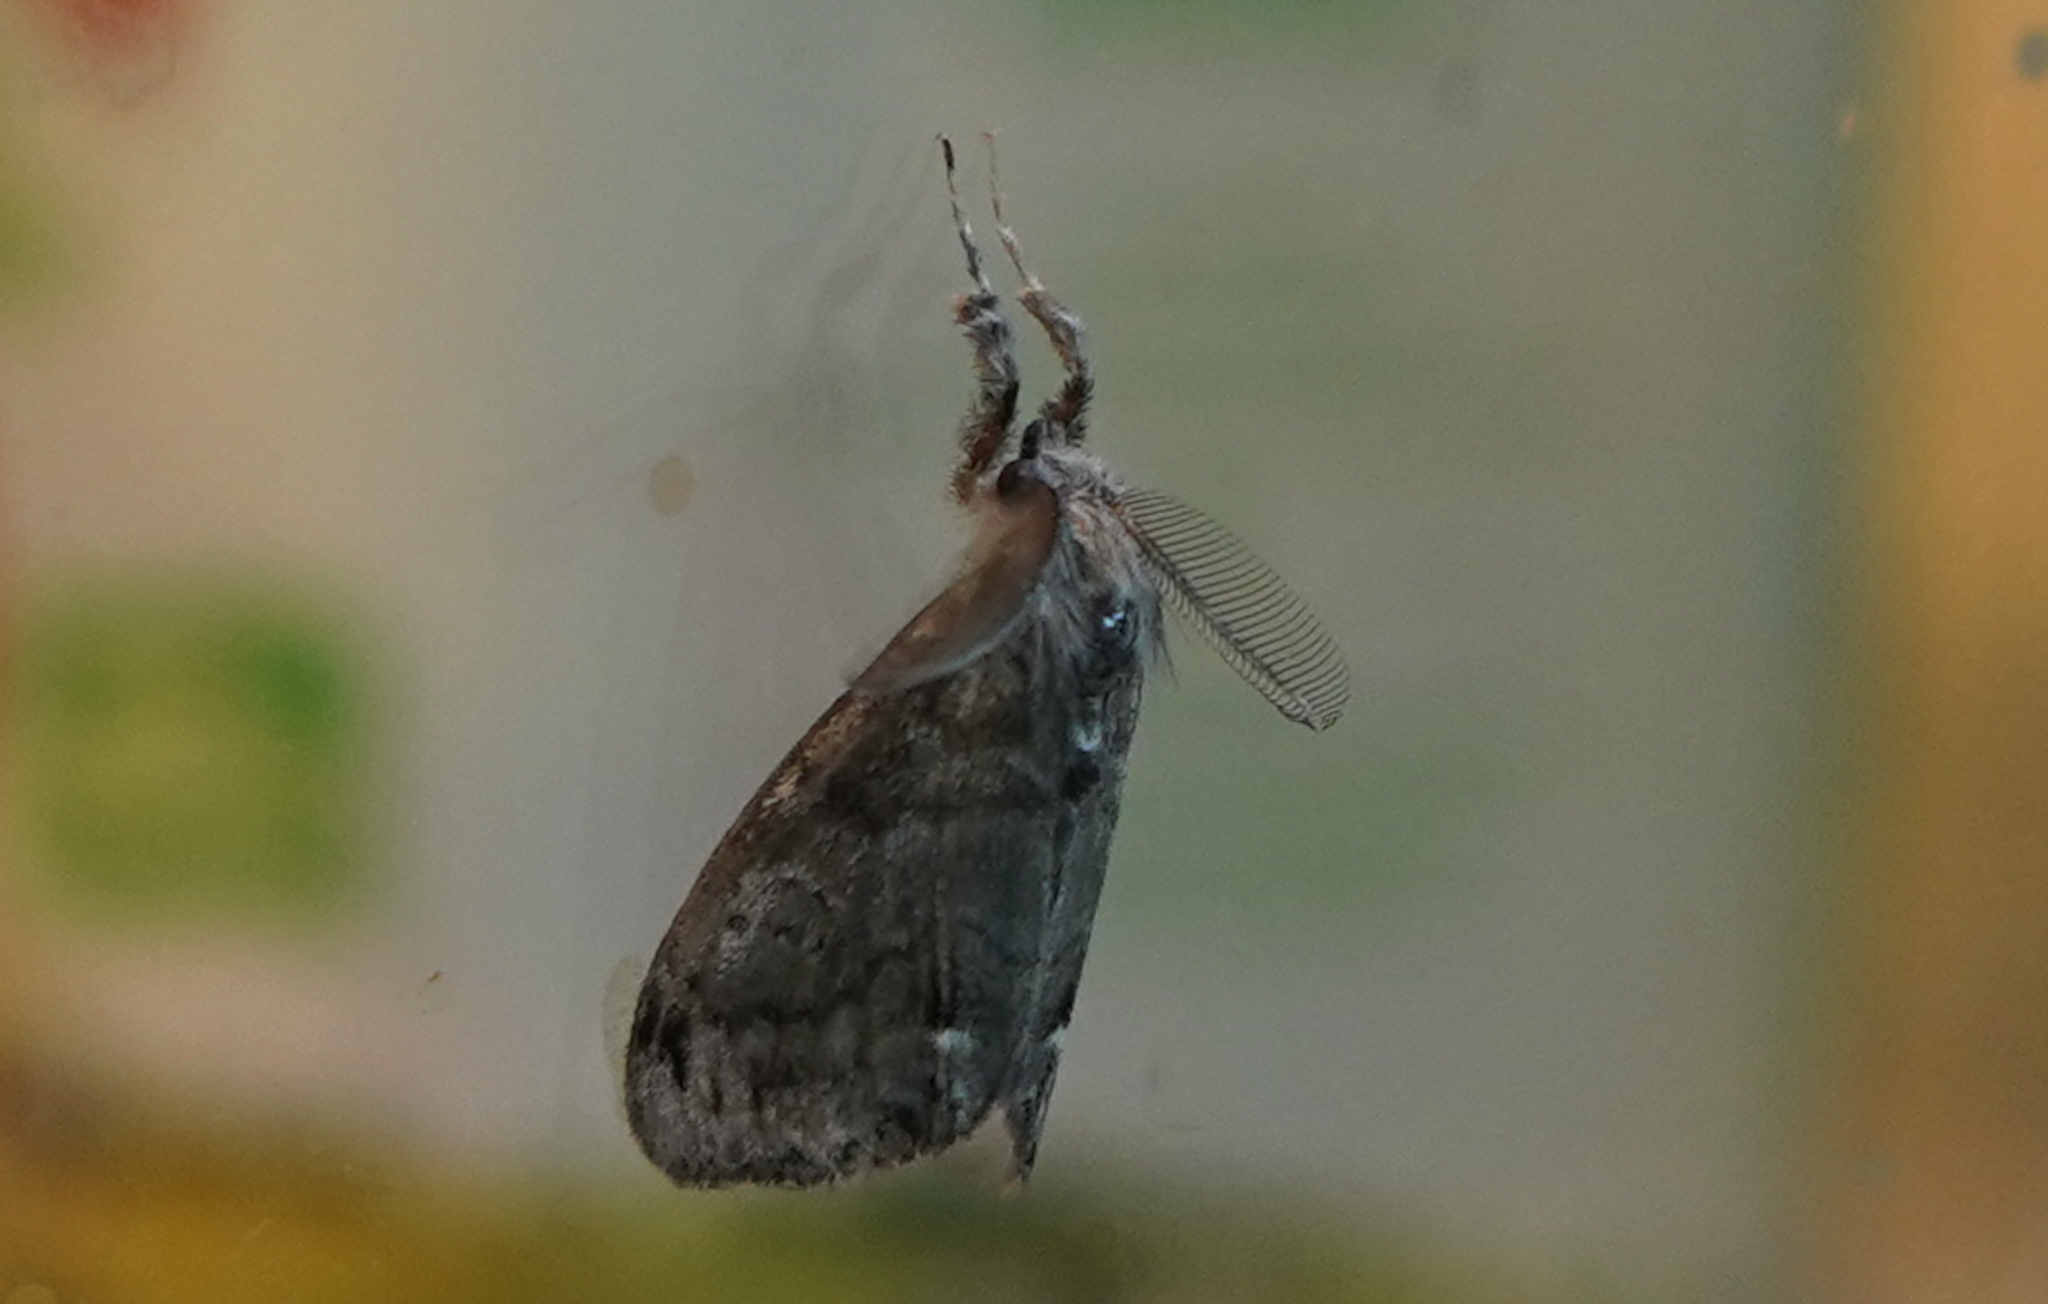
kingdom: Animalia
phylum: Arthropoda
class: Insecta
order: Lepidoptera
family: Erebidae
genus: Orgyia
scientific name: Orgyia leucostigma
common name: White-marked tussock moth
